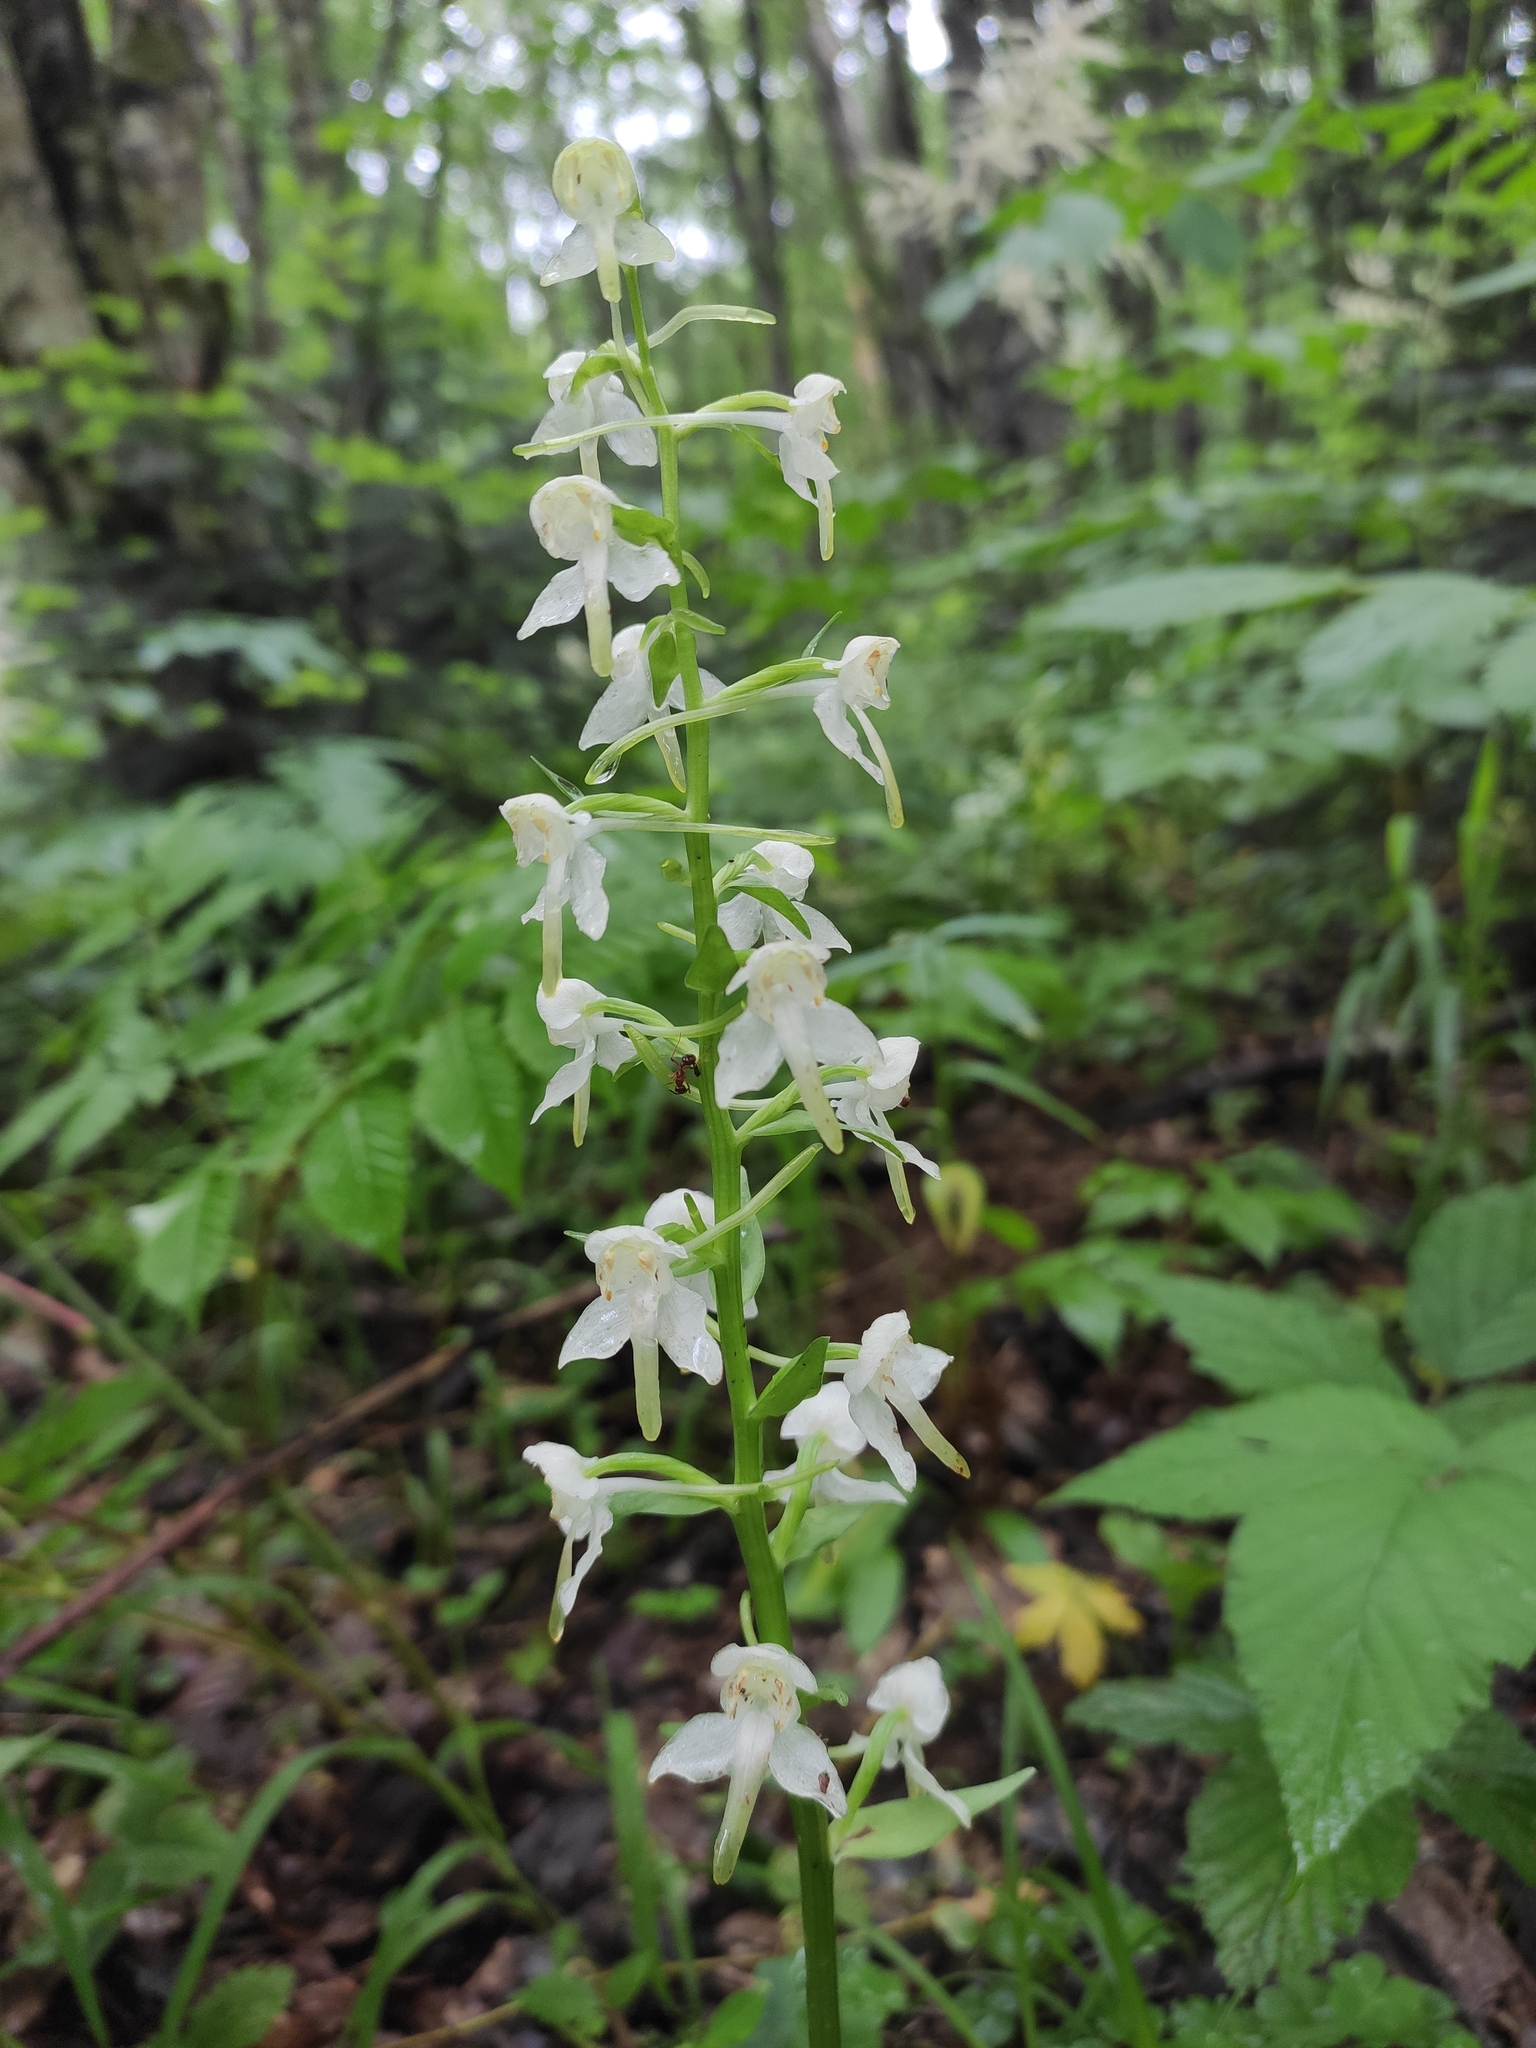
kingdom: Plantae
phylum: Tracheophyta
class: Liliopsida
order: Asparagales
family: Orchidaceae
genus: Platanthera
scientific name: Platanthera chlorantha
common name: Greater butterfly-orchid
